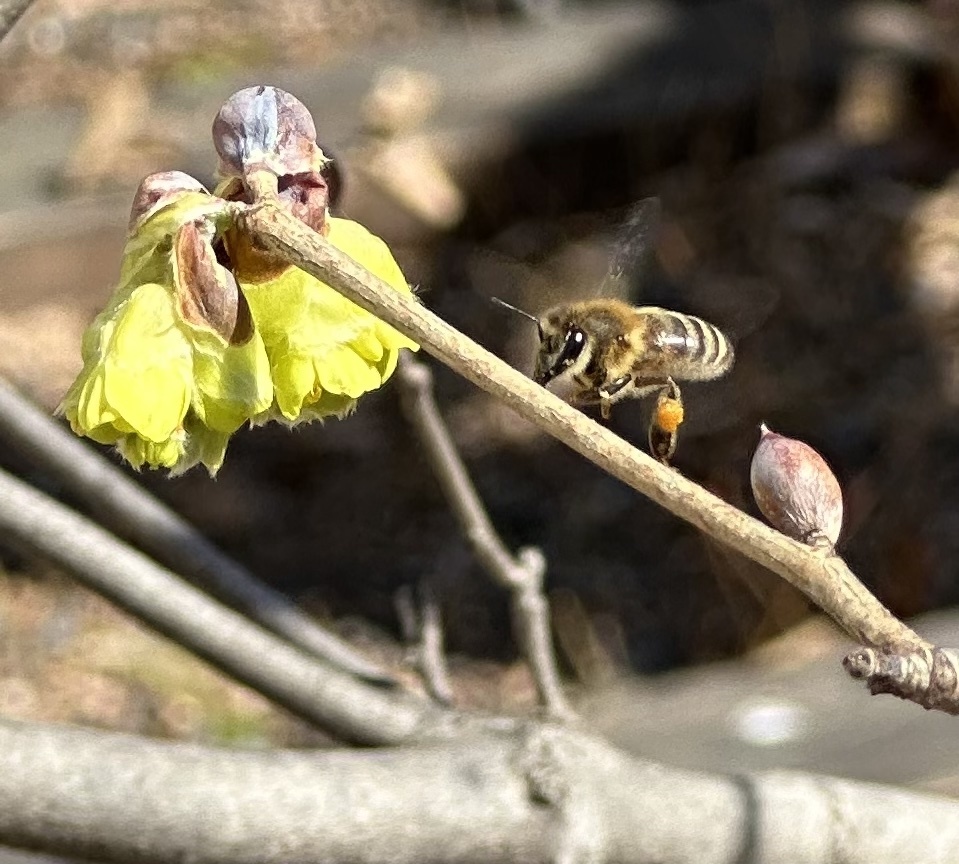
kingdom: Animalia
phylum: Arthropoda
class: Insecta
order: Hymenoptera
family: Apidae
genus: Apis
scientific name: Apis mellifera
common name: Honey bee
